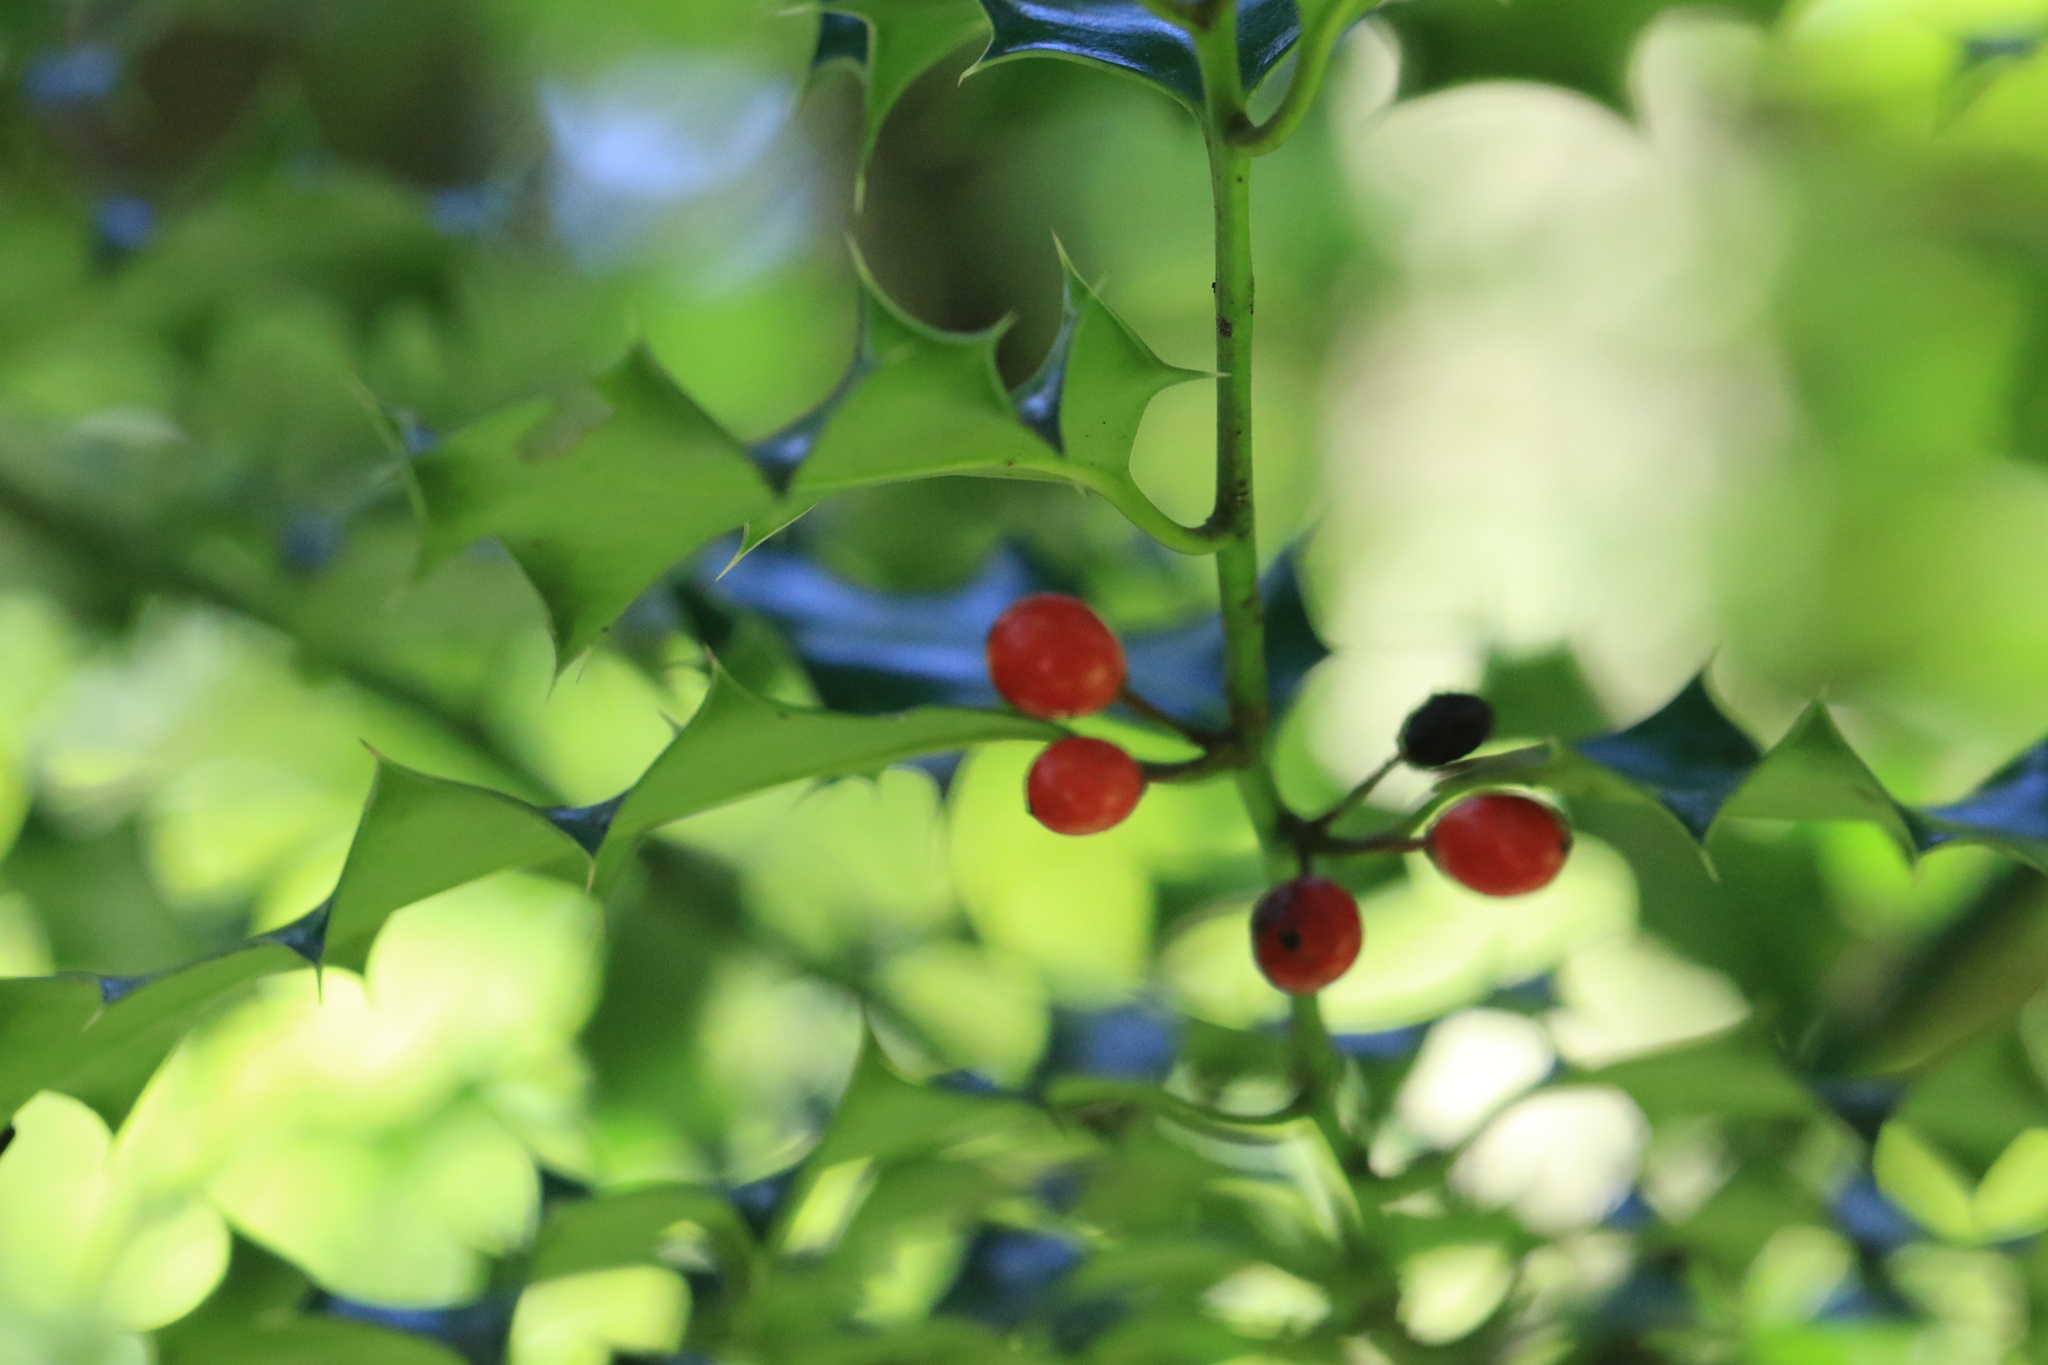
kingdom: Plantae
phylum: Tracheophyta
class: Magnoliopsida
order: Aquifoliales
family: Aquifoliaceae
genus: Ilex
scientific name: Ilex aquifolium
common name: English holly
